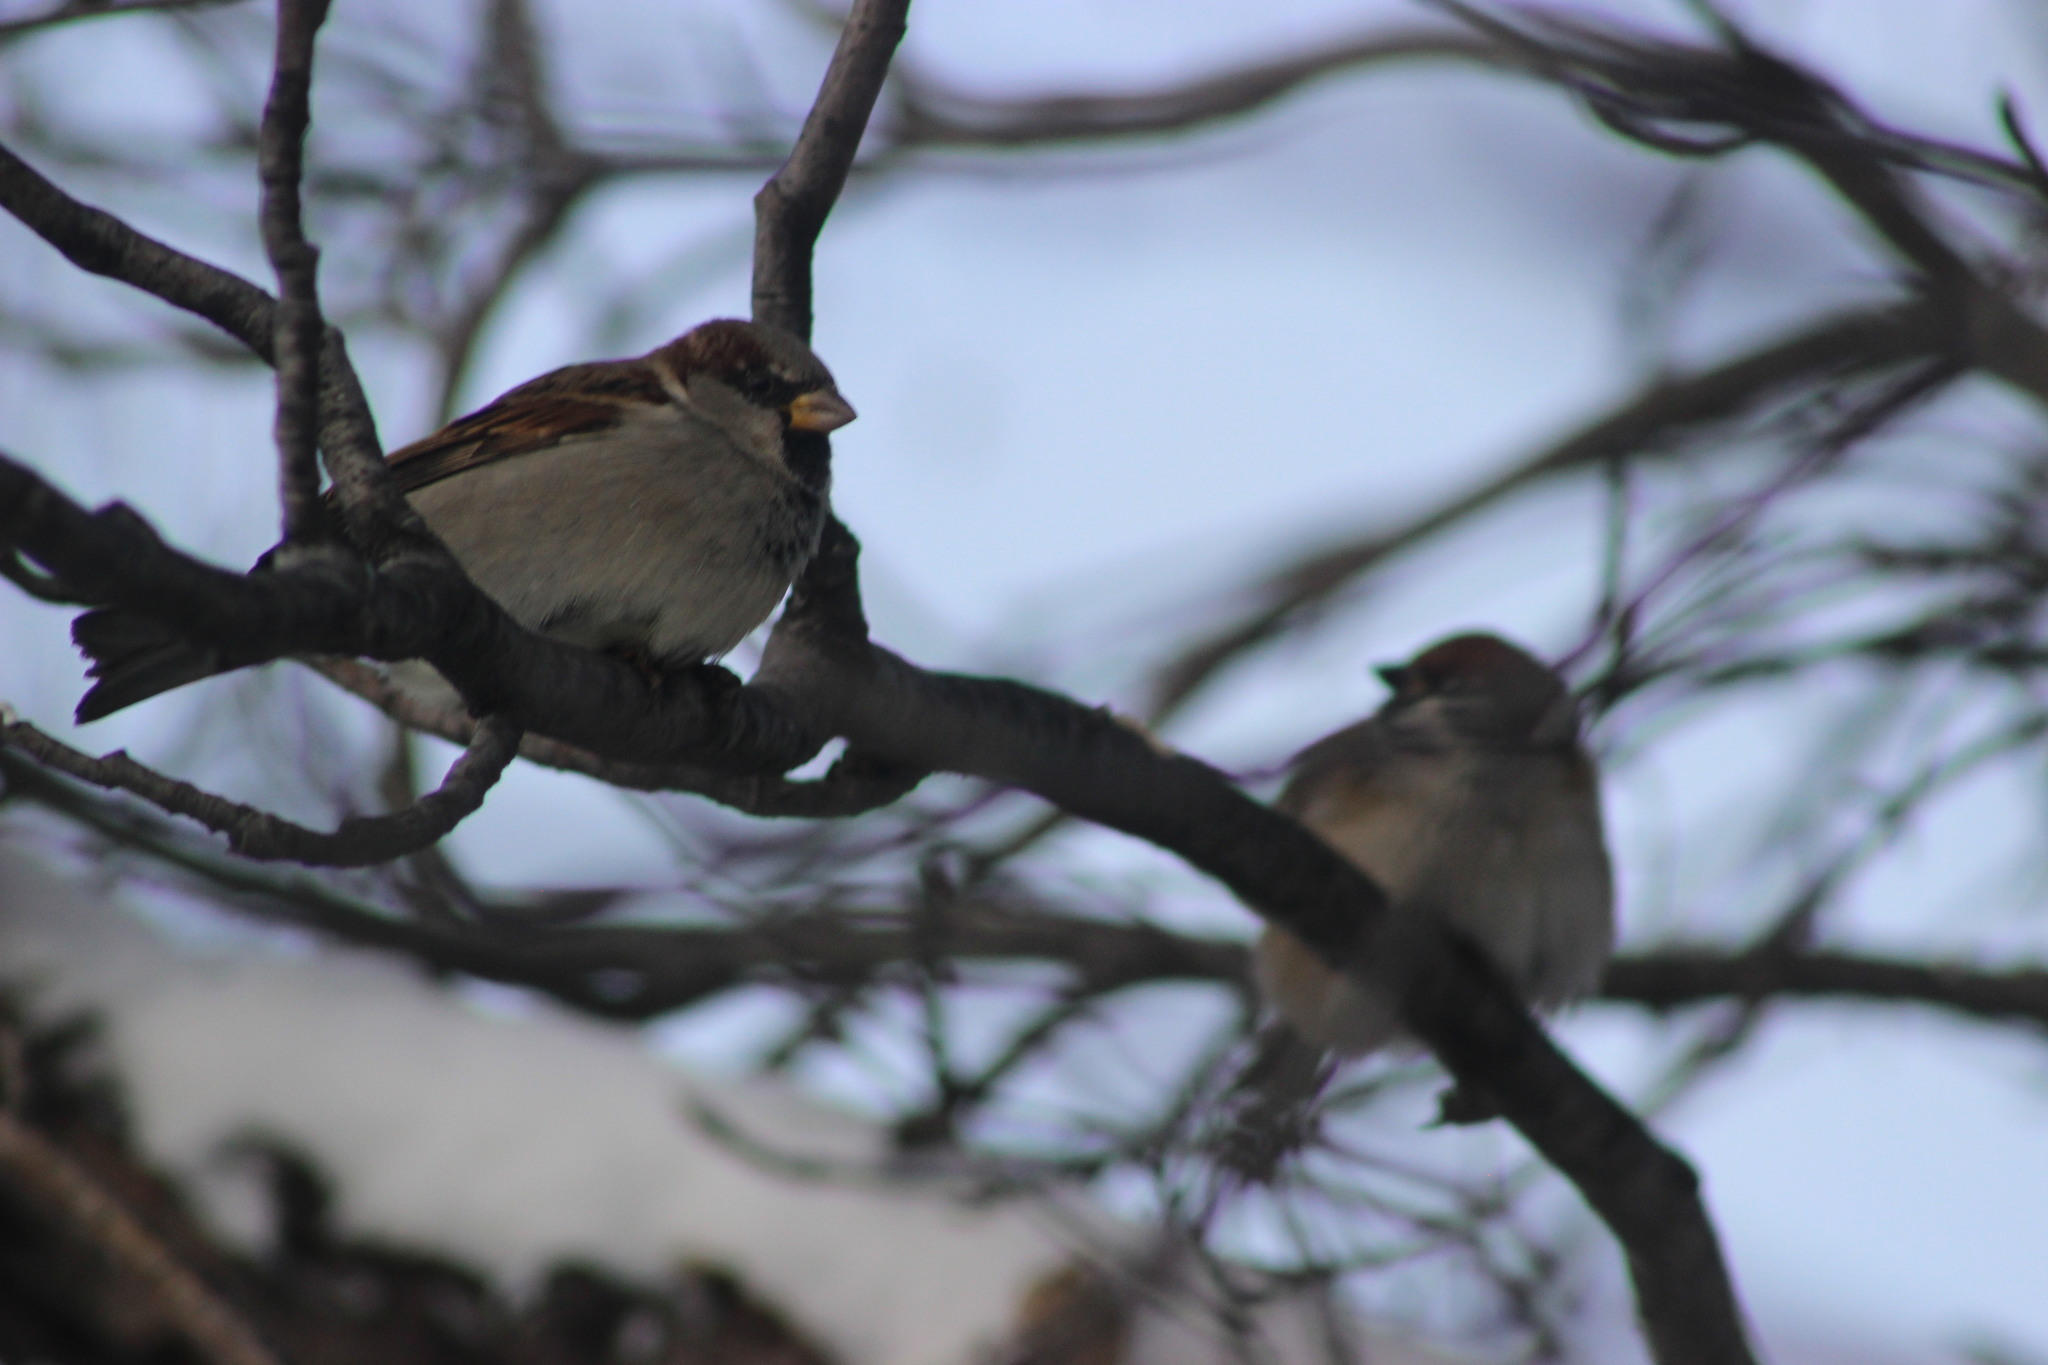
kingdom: Animalia
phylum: Chordata
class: Aves
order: Passeriformes
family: Passeridae
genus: Passer
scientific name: Passer domesticus
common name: House sparrow
